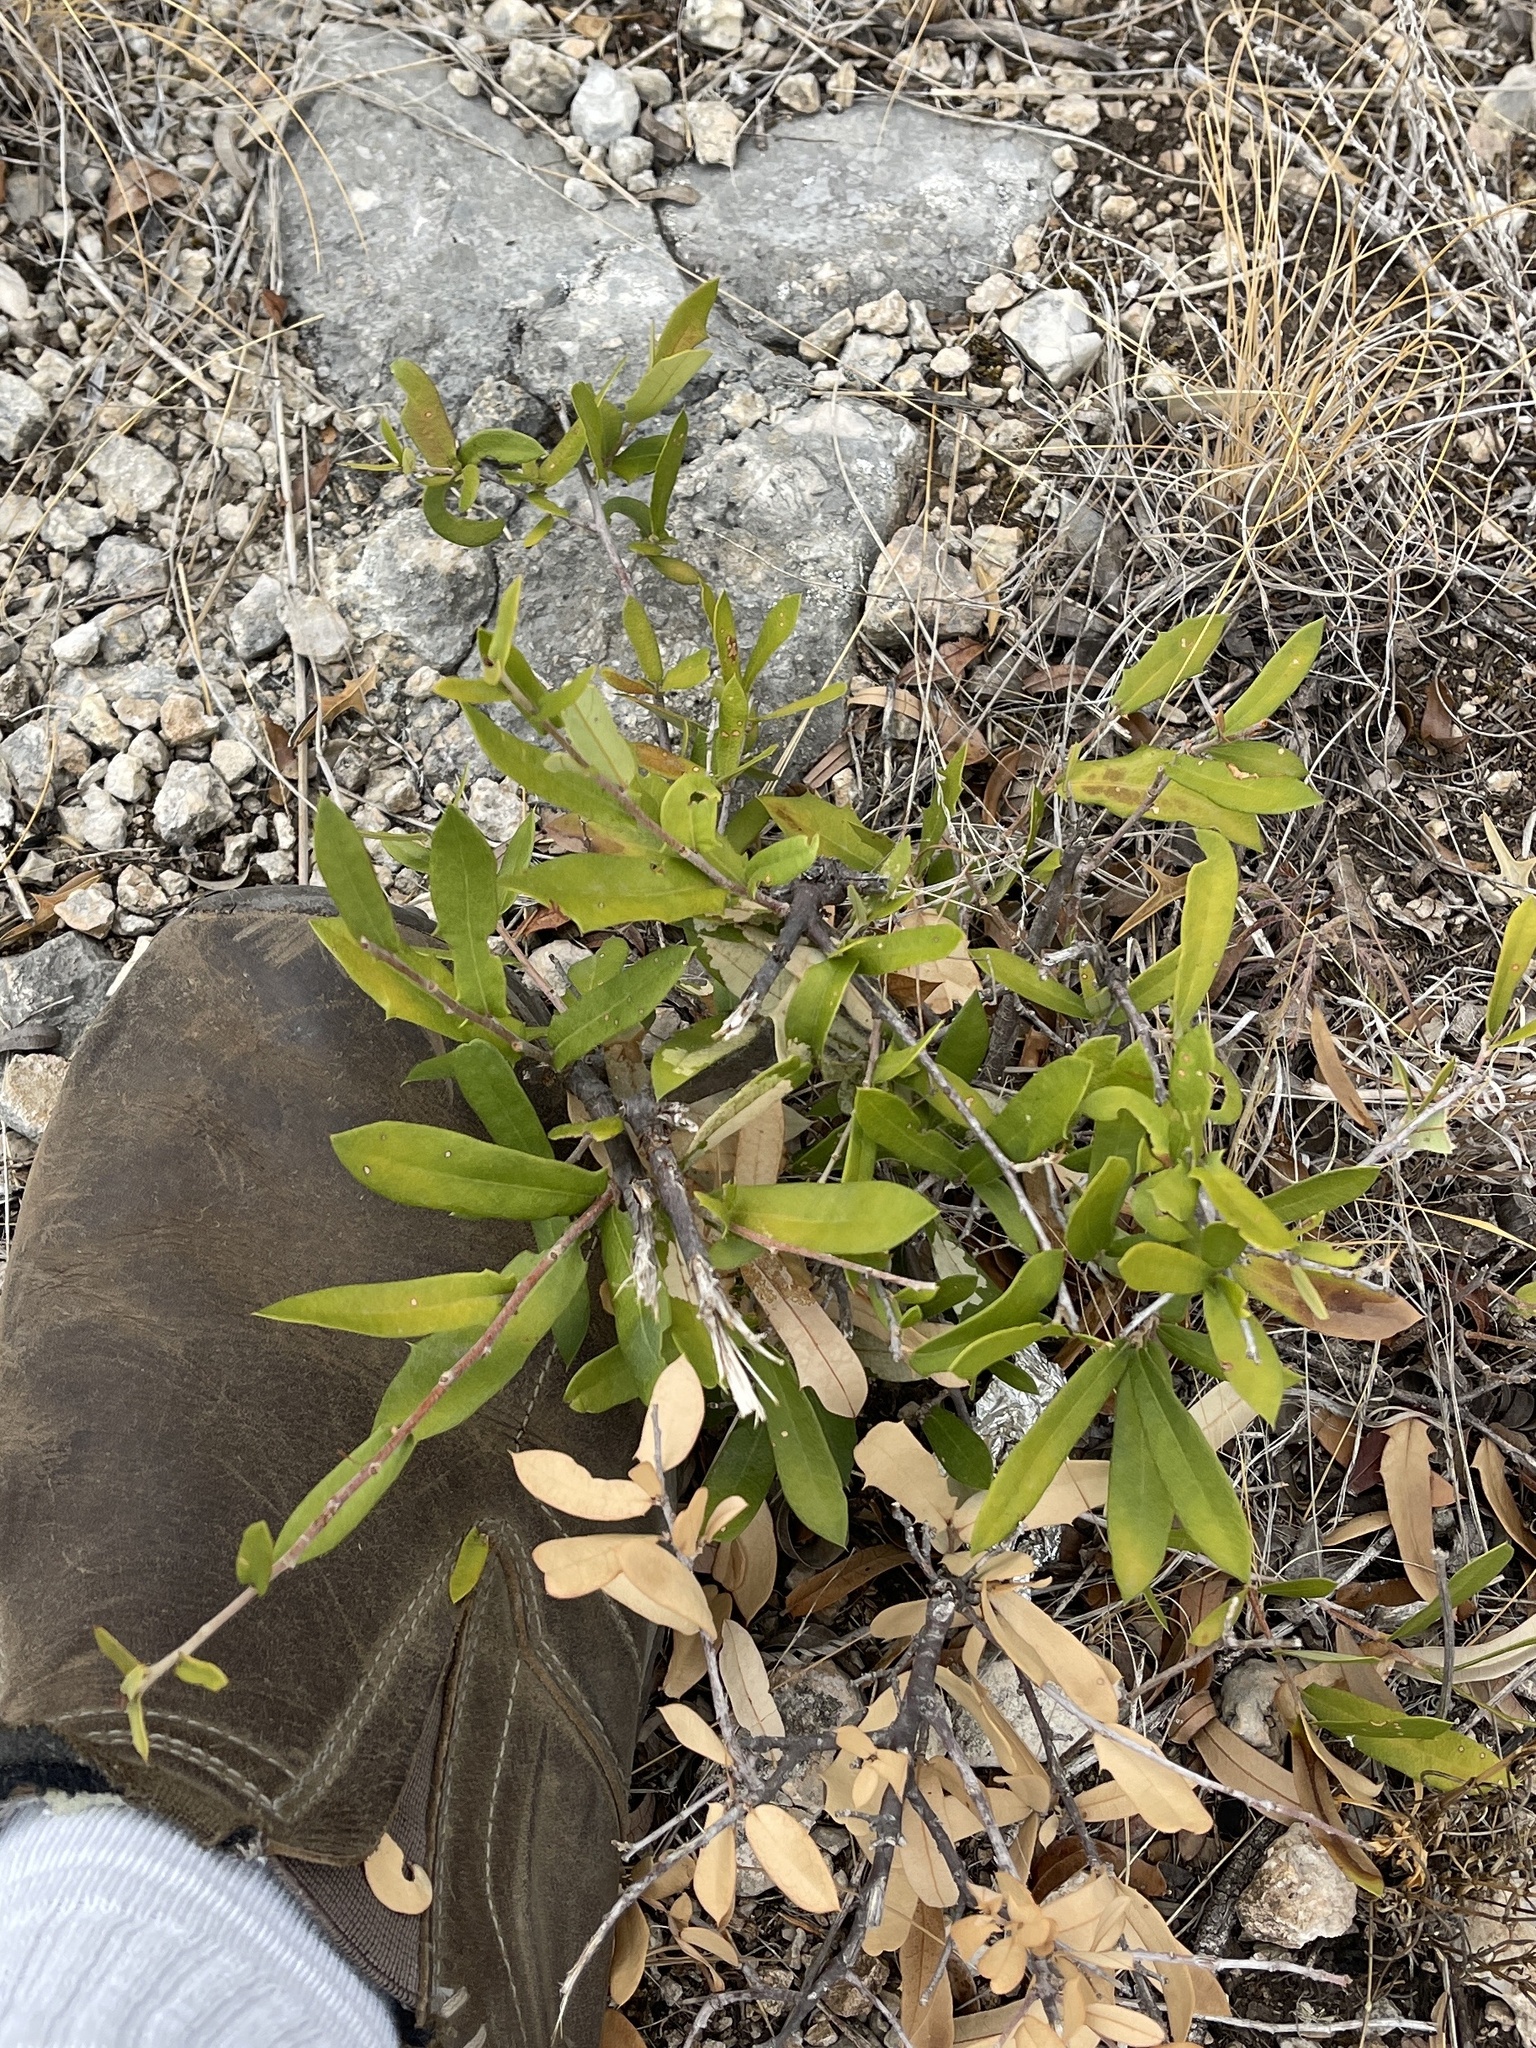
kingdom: Plantae
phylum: Tracheophyta
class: Magnoliopsida
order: Fagales
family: Fagaceae
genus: Quercus
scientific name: Quercus fusiformis
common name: Texas live oak
